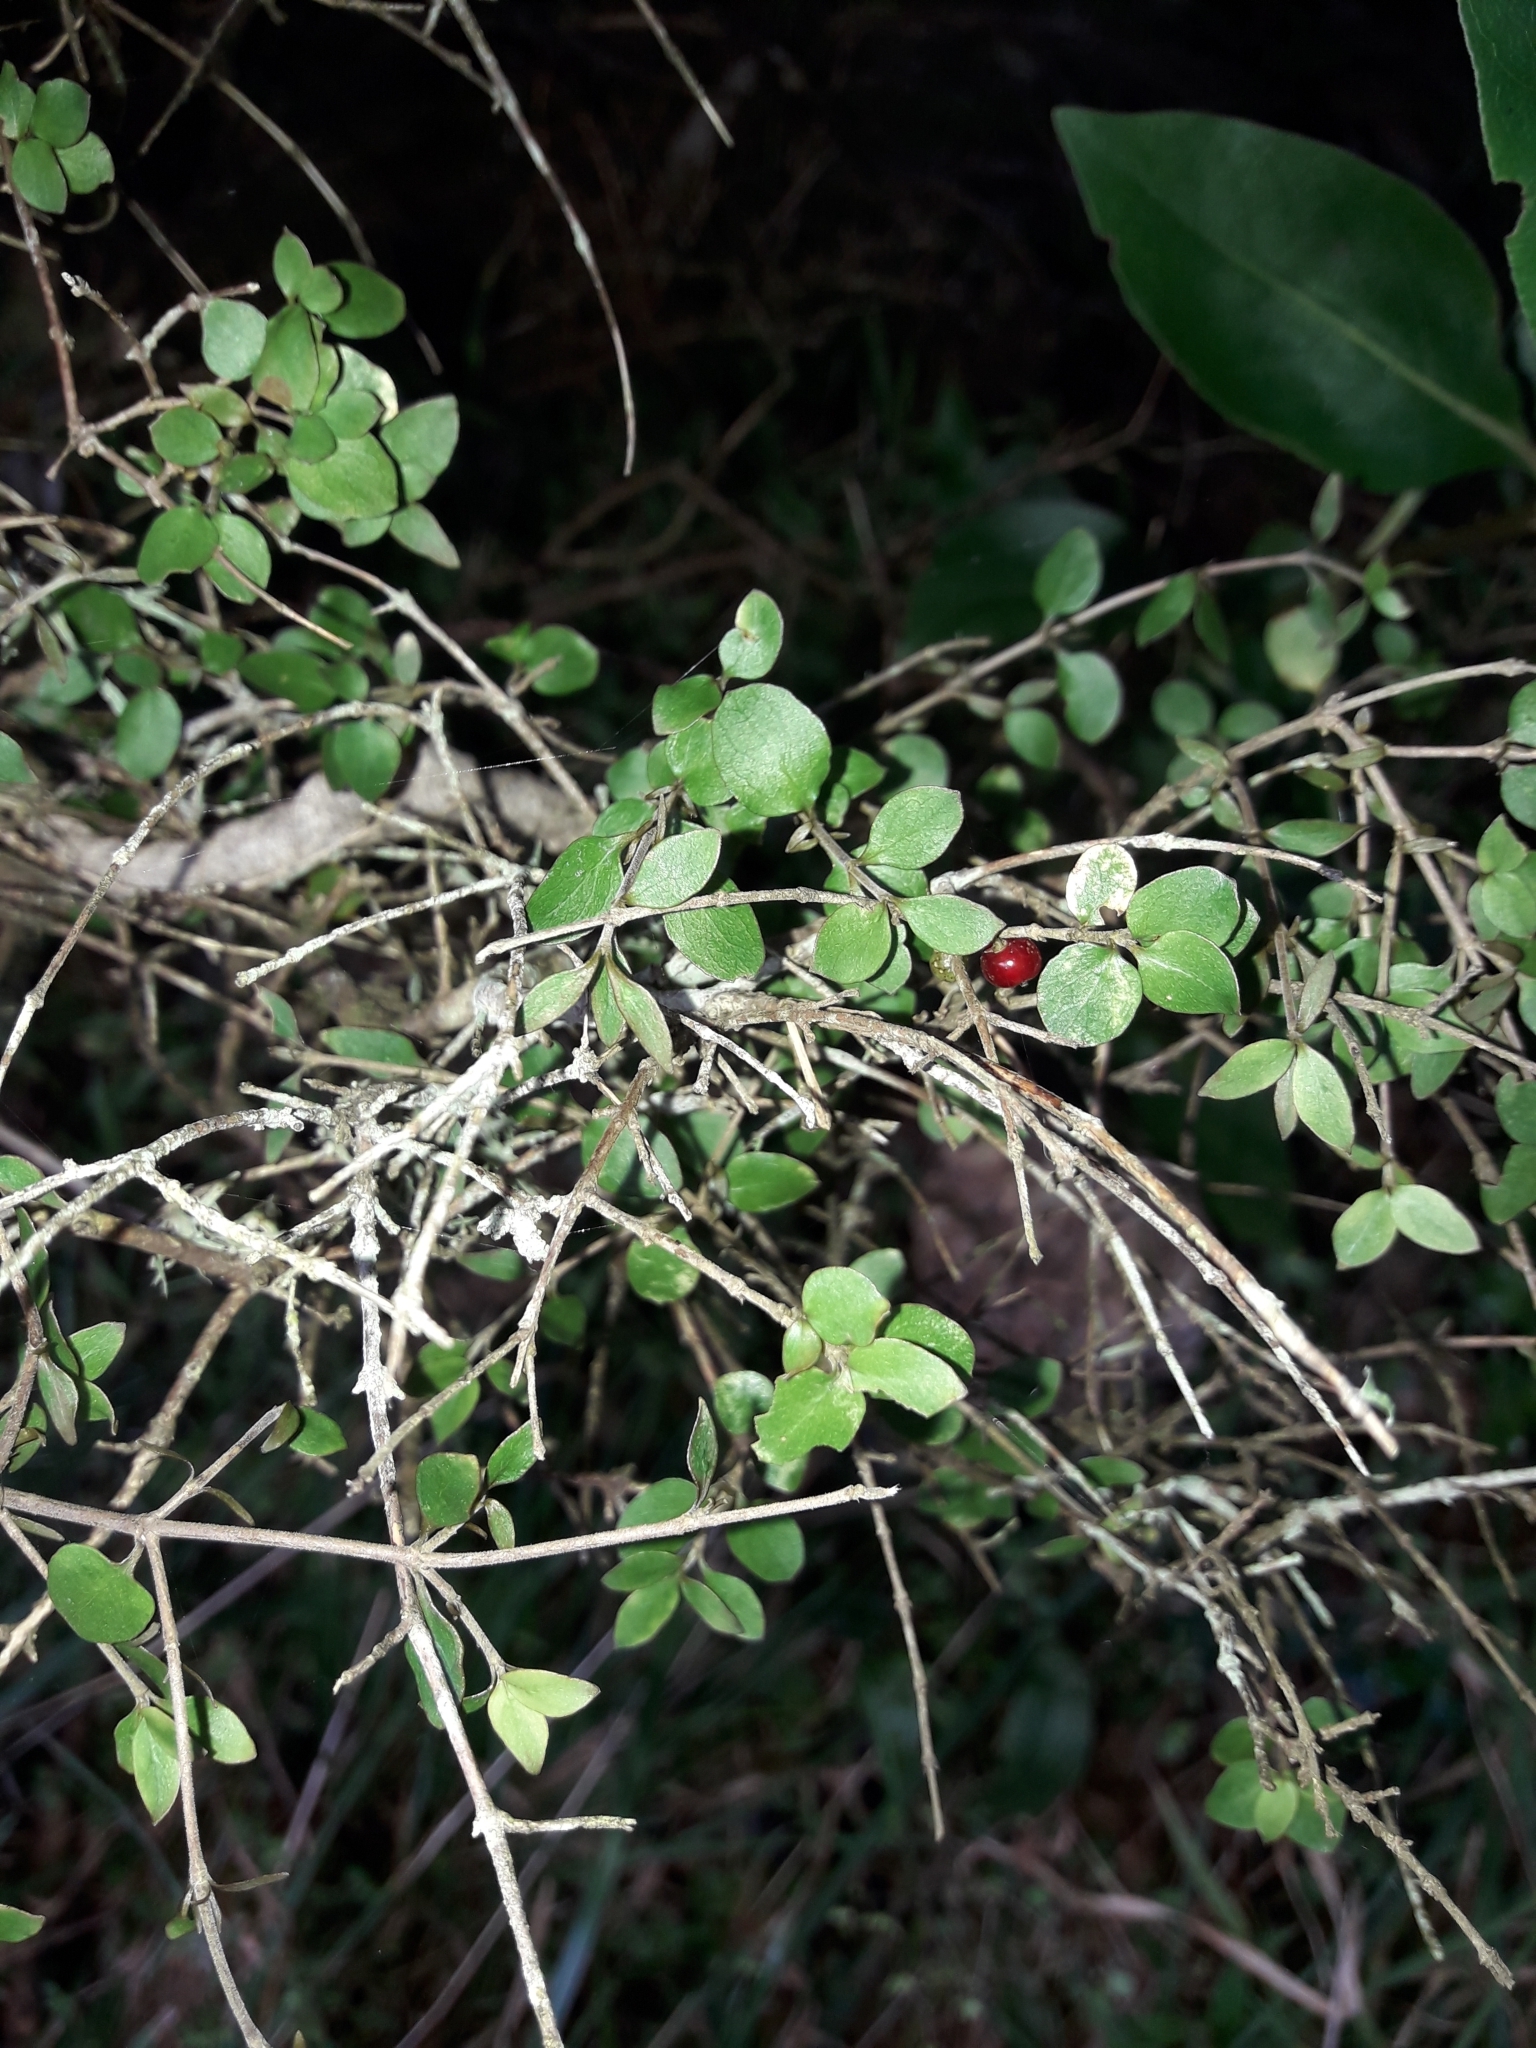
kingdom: Plantae
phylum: Tracheophyta
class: Magnoliopsida
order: Gentianales
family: Rubiaceae
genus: Coprosma
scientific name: Coprosma rhamnoides
